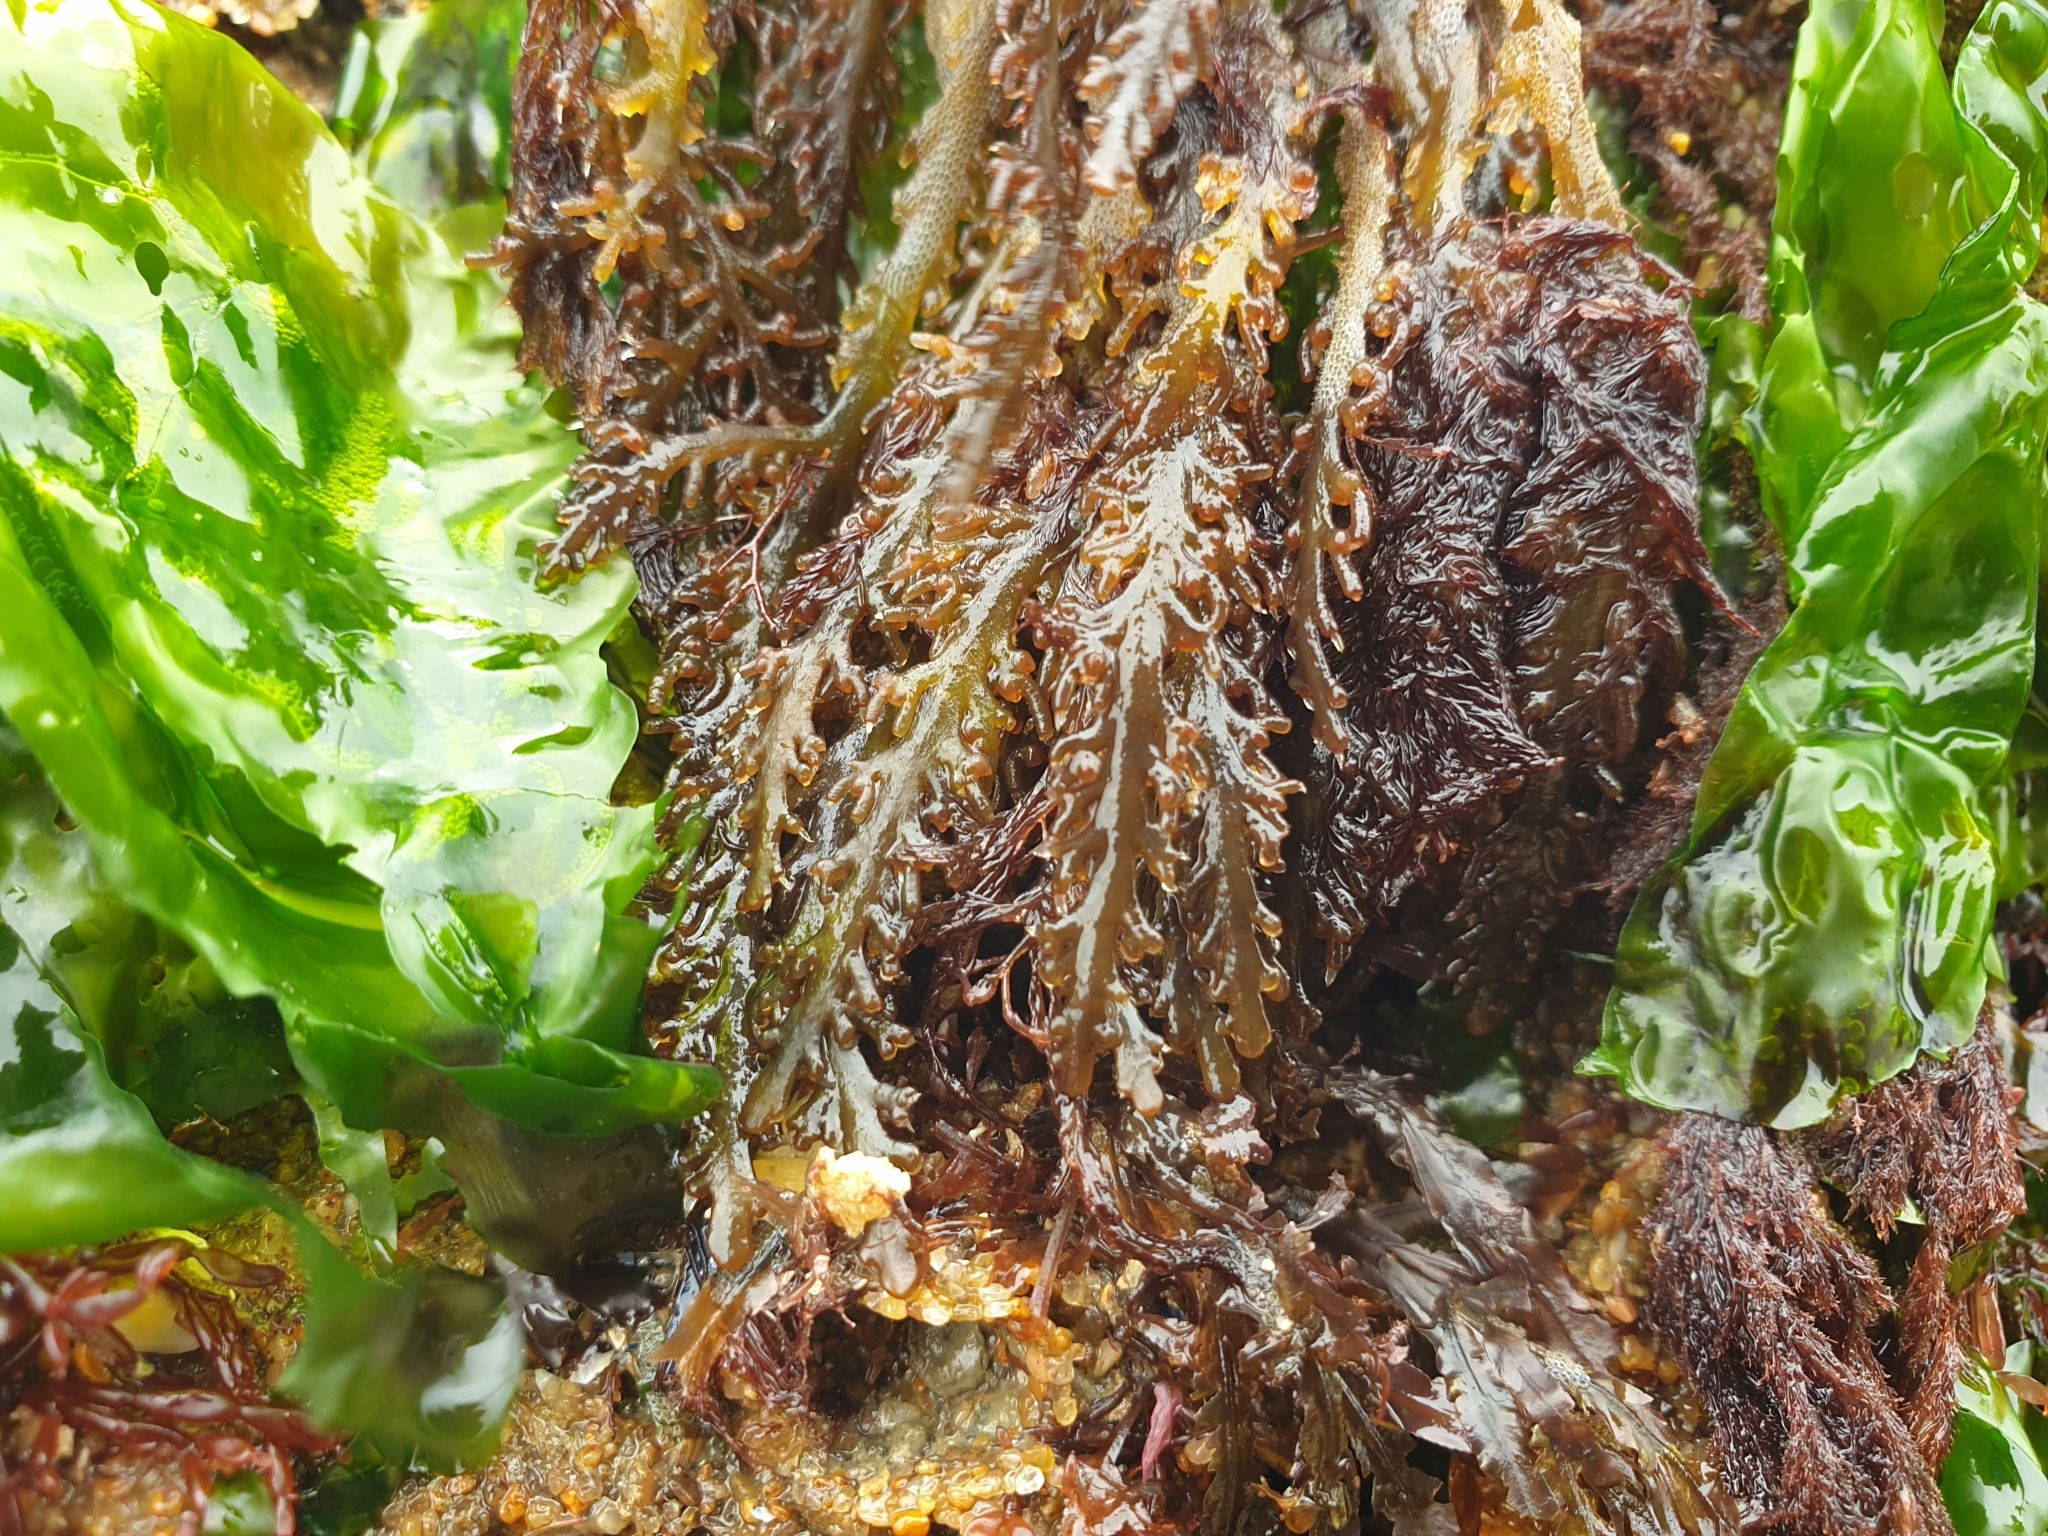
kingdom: Plantae
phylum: Rhodophyta
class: Florideophyceae
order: Ceramiales
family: Rhodomelaceae
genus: Laurencia
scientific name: Laurencia Osmundea pinnatifida
